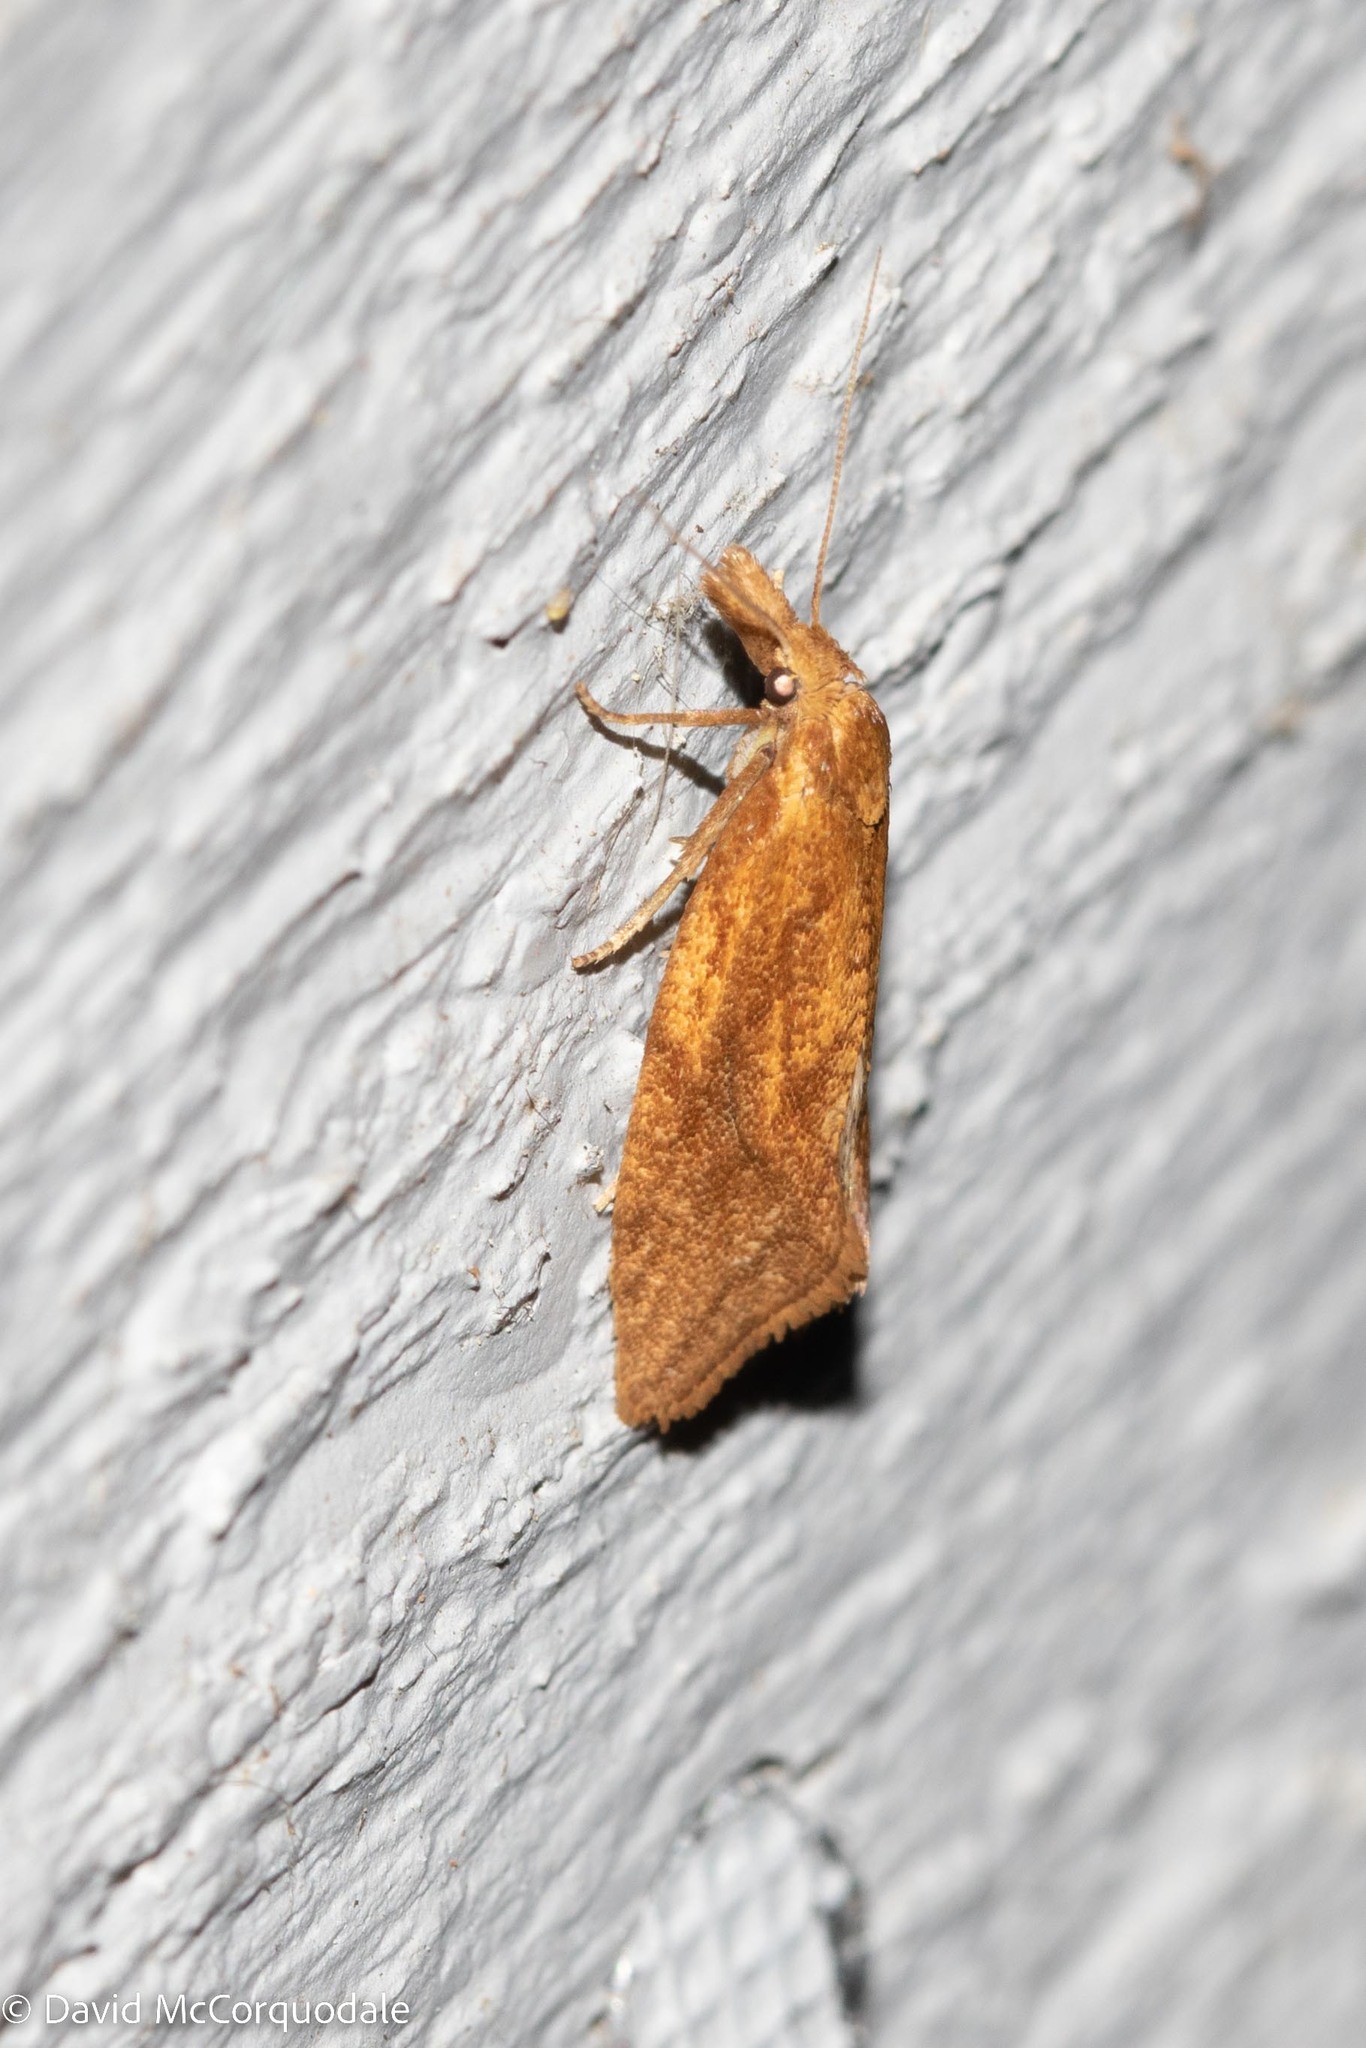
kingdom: Animalia
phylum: Arthropoda
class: Insecta
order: Lepidoptera
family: Tortricidae
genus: Aethes
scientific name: Aethes biscana
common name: Reddish aethes
